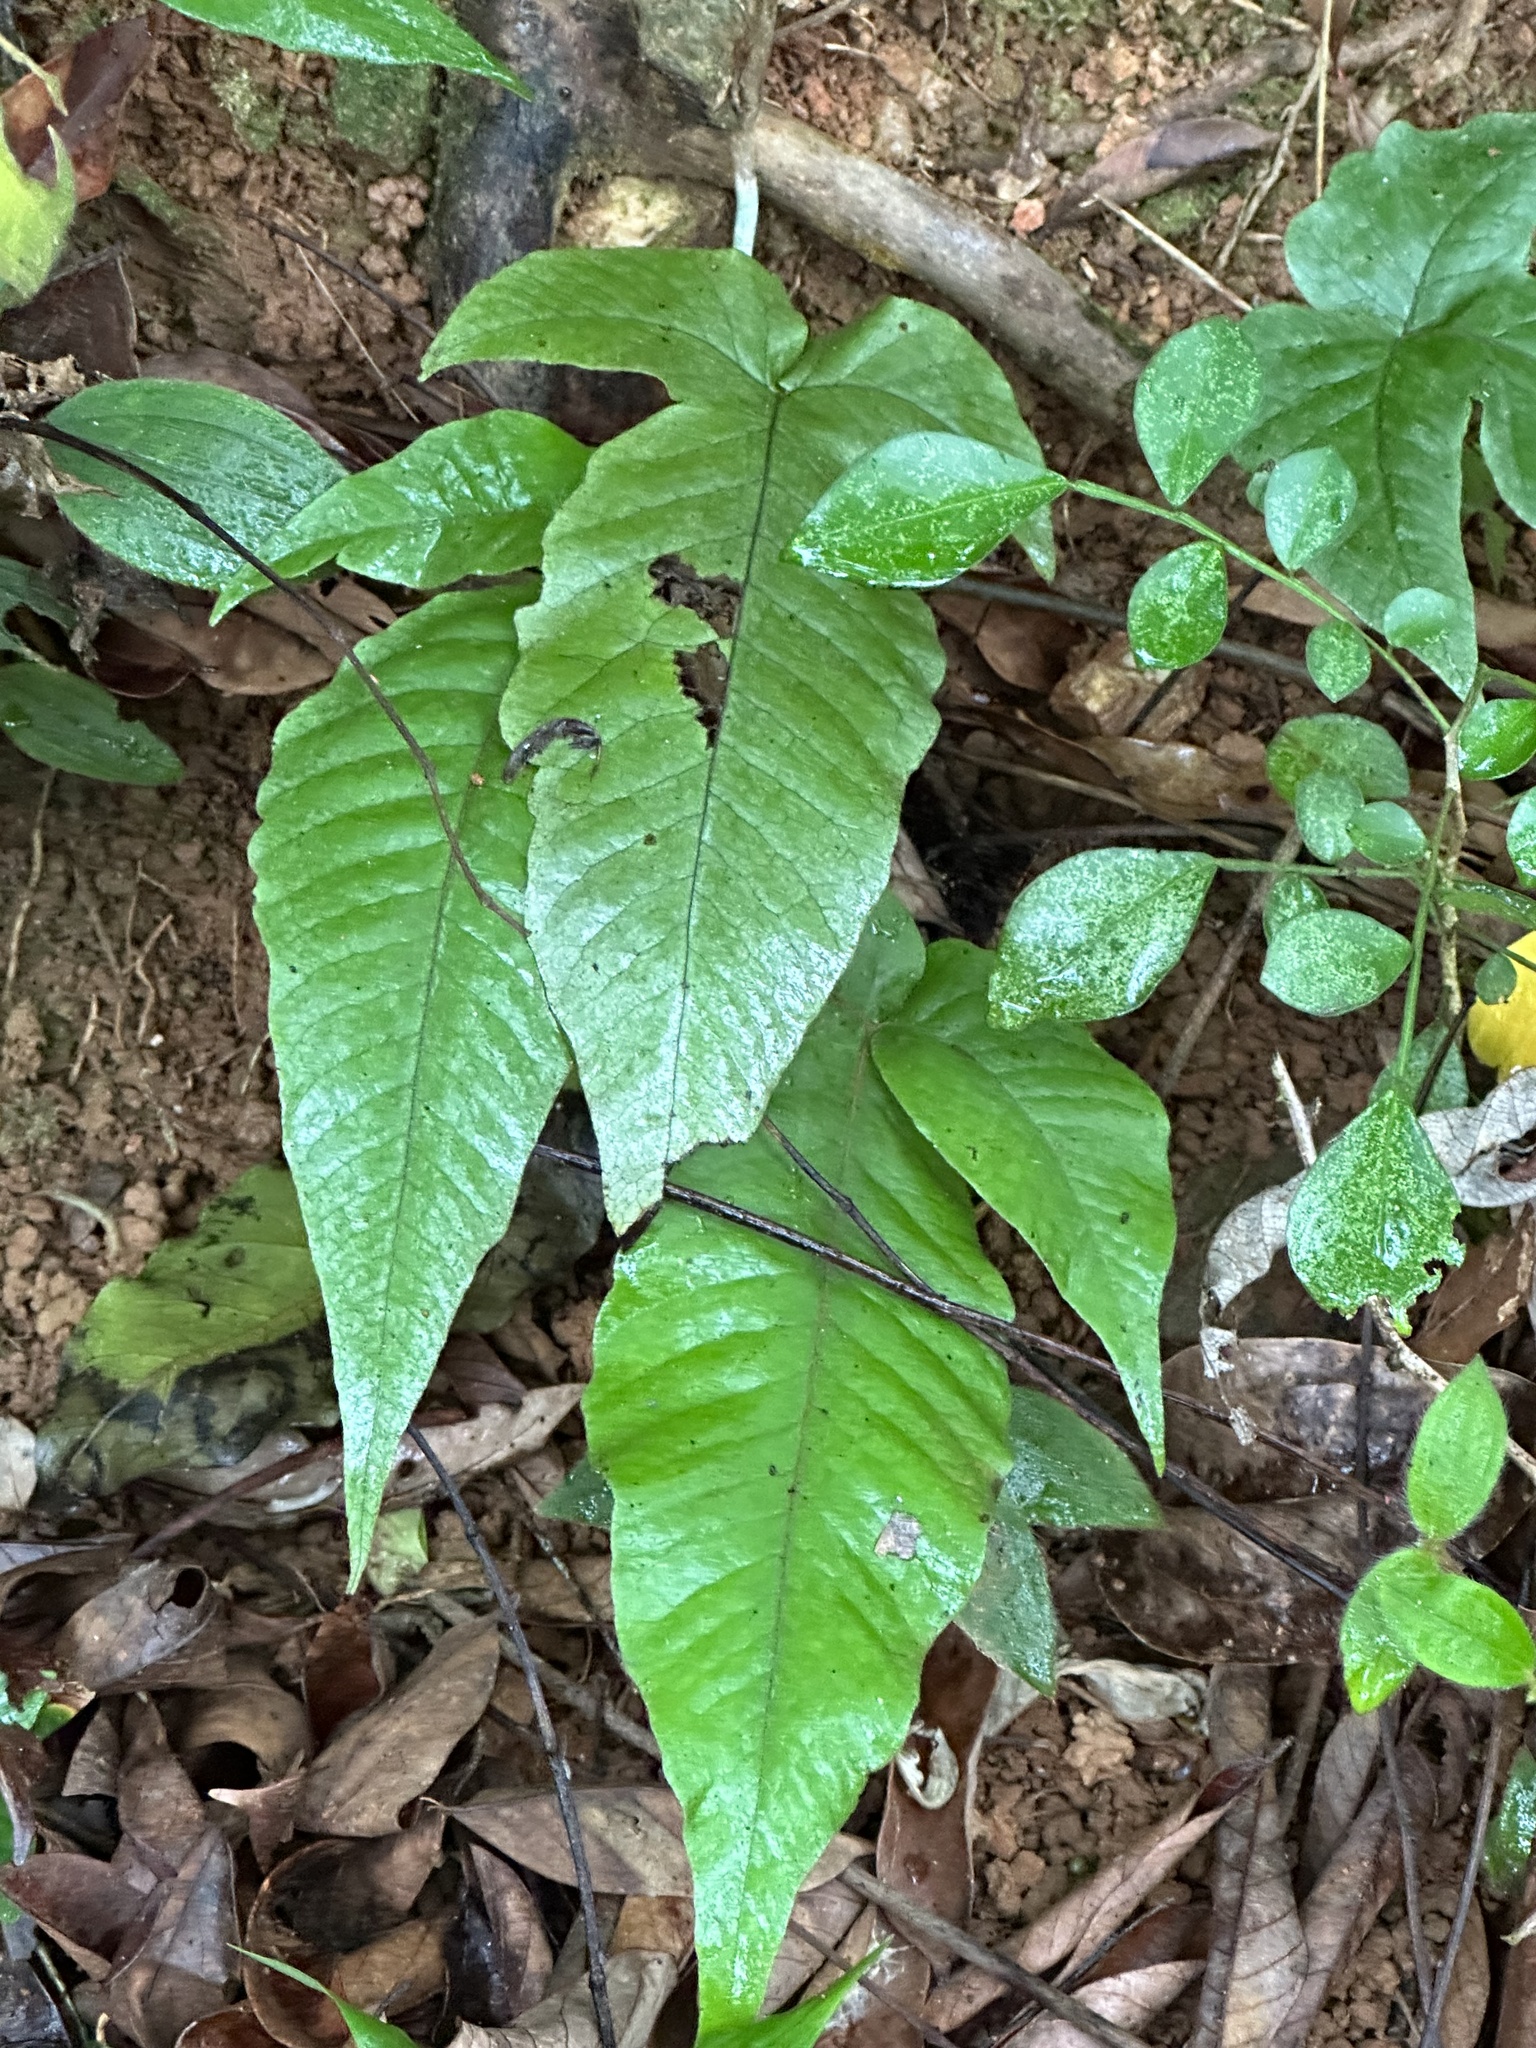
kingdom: Plantae
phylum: Tracheophyta
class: Polypodiopsida
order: Polypodiales
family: Tectariaceae
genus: Tectaria
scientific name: Tectaria simonsii
